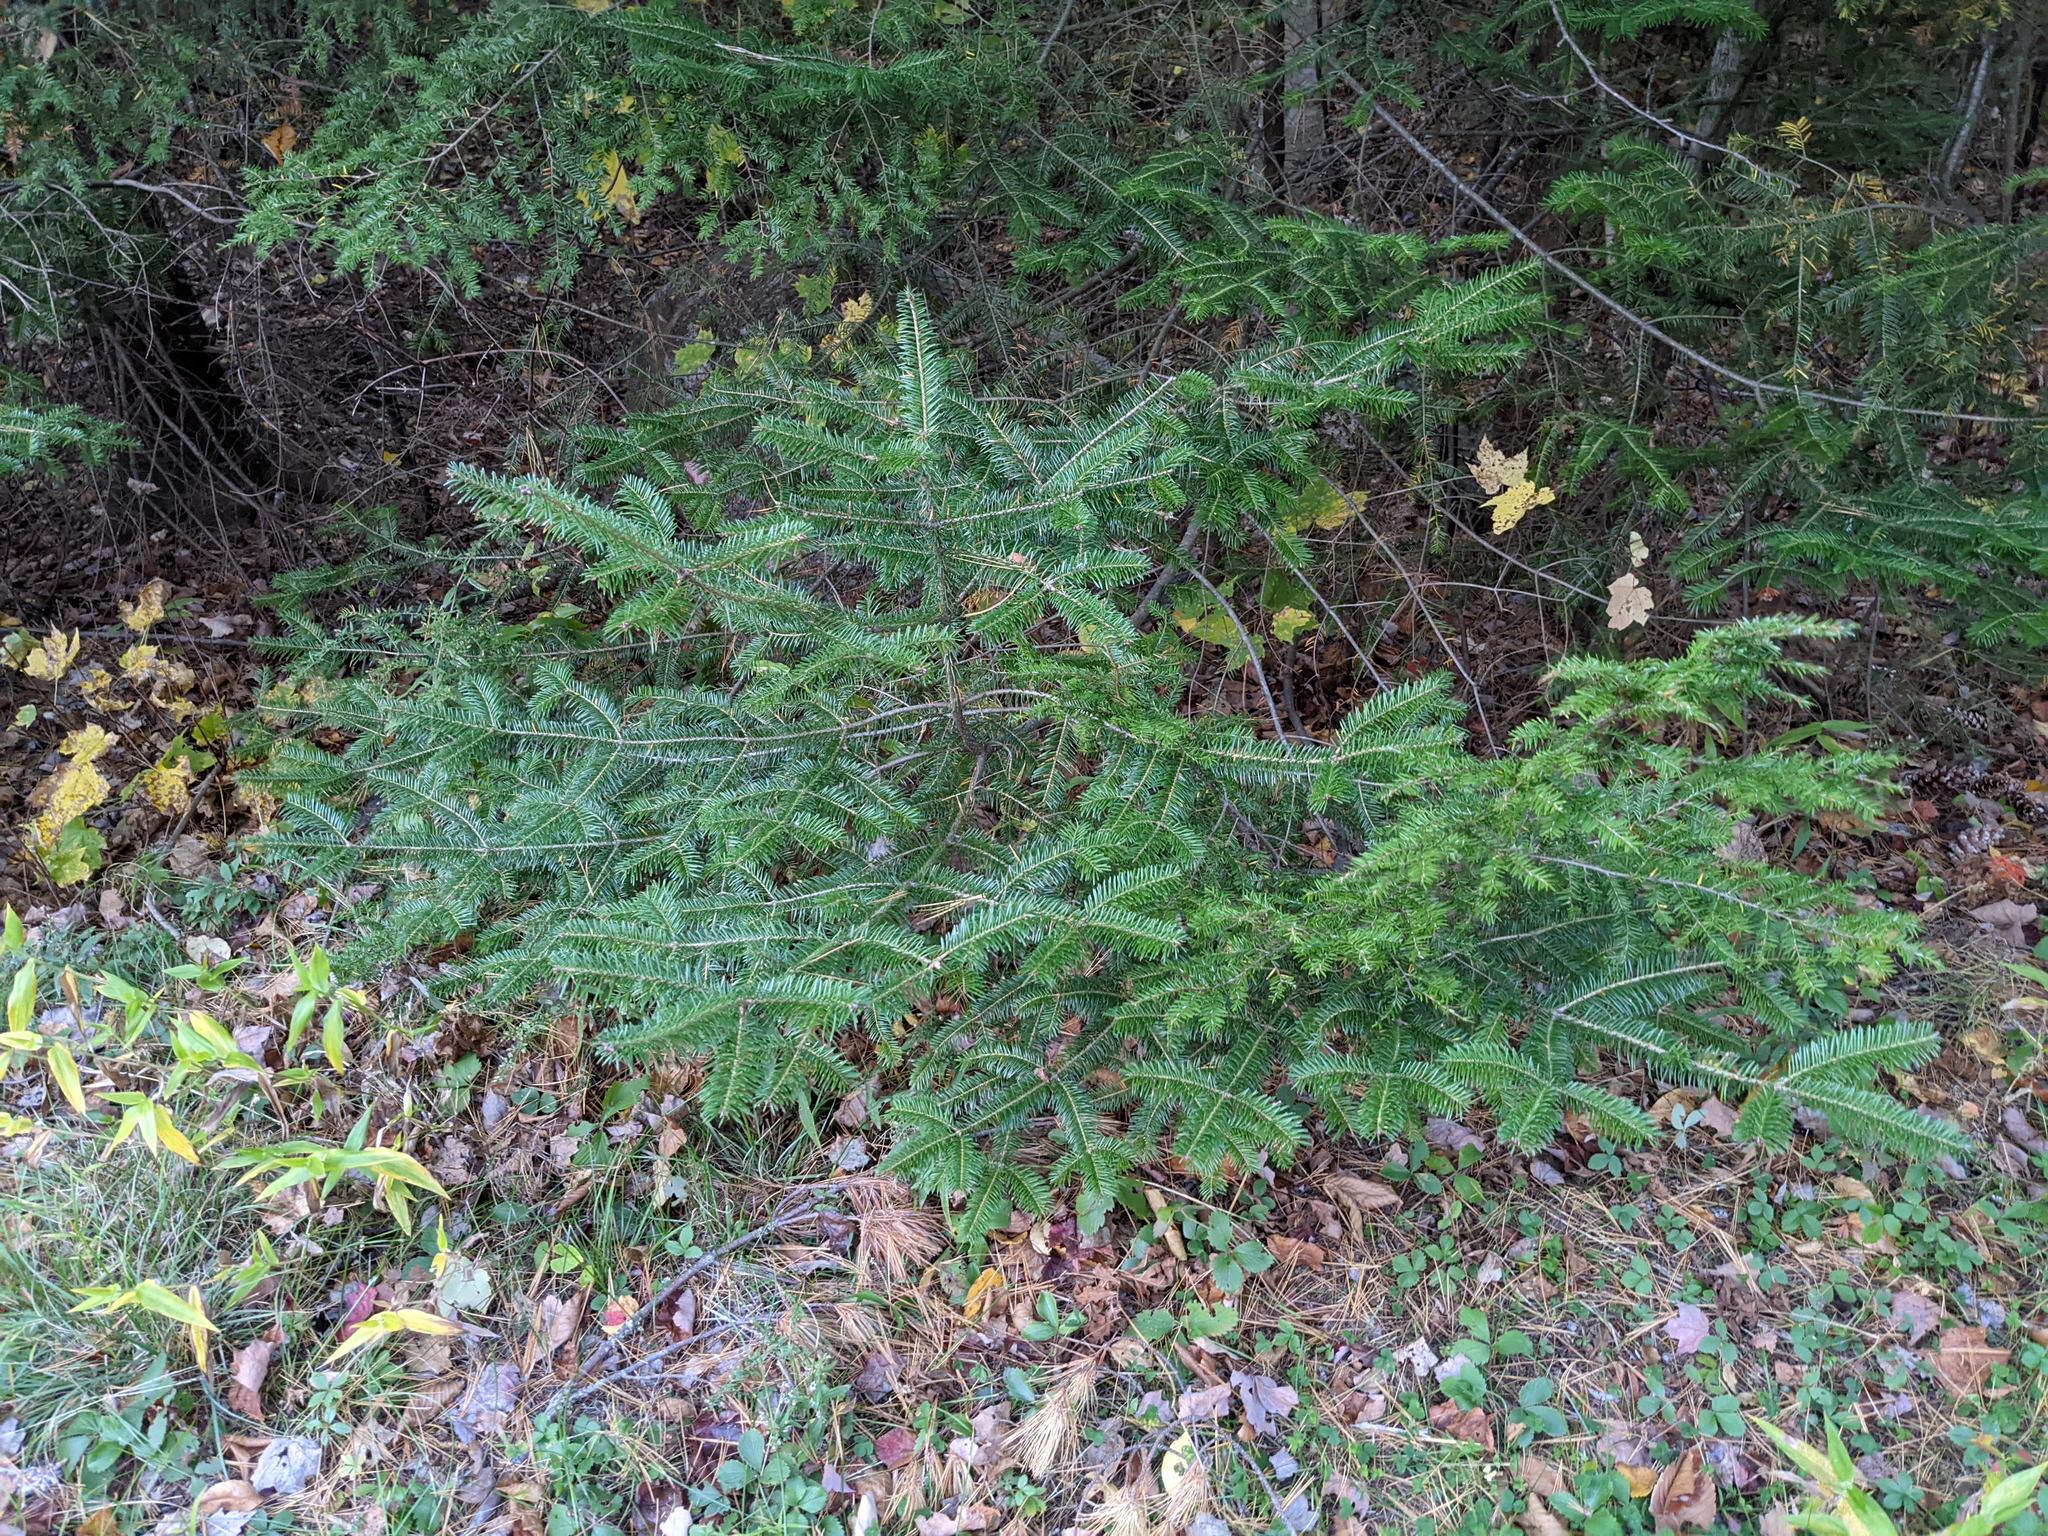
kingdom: Plantae
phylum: Tracheophyta
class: Pinopsida
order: Pinales
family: Pinaceae
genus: Abies
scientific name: Abies balsamea
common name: Balsam fir
